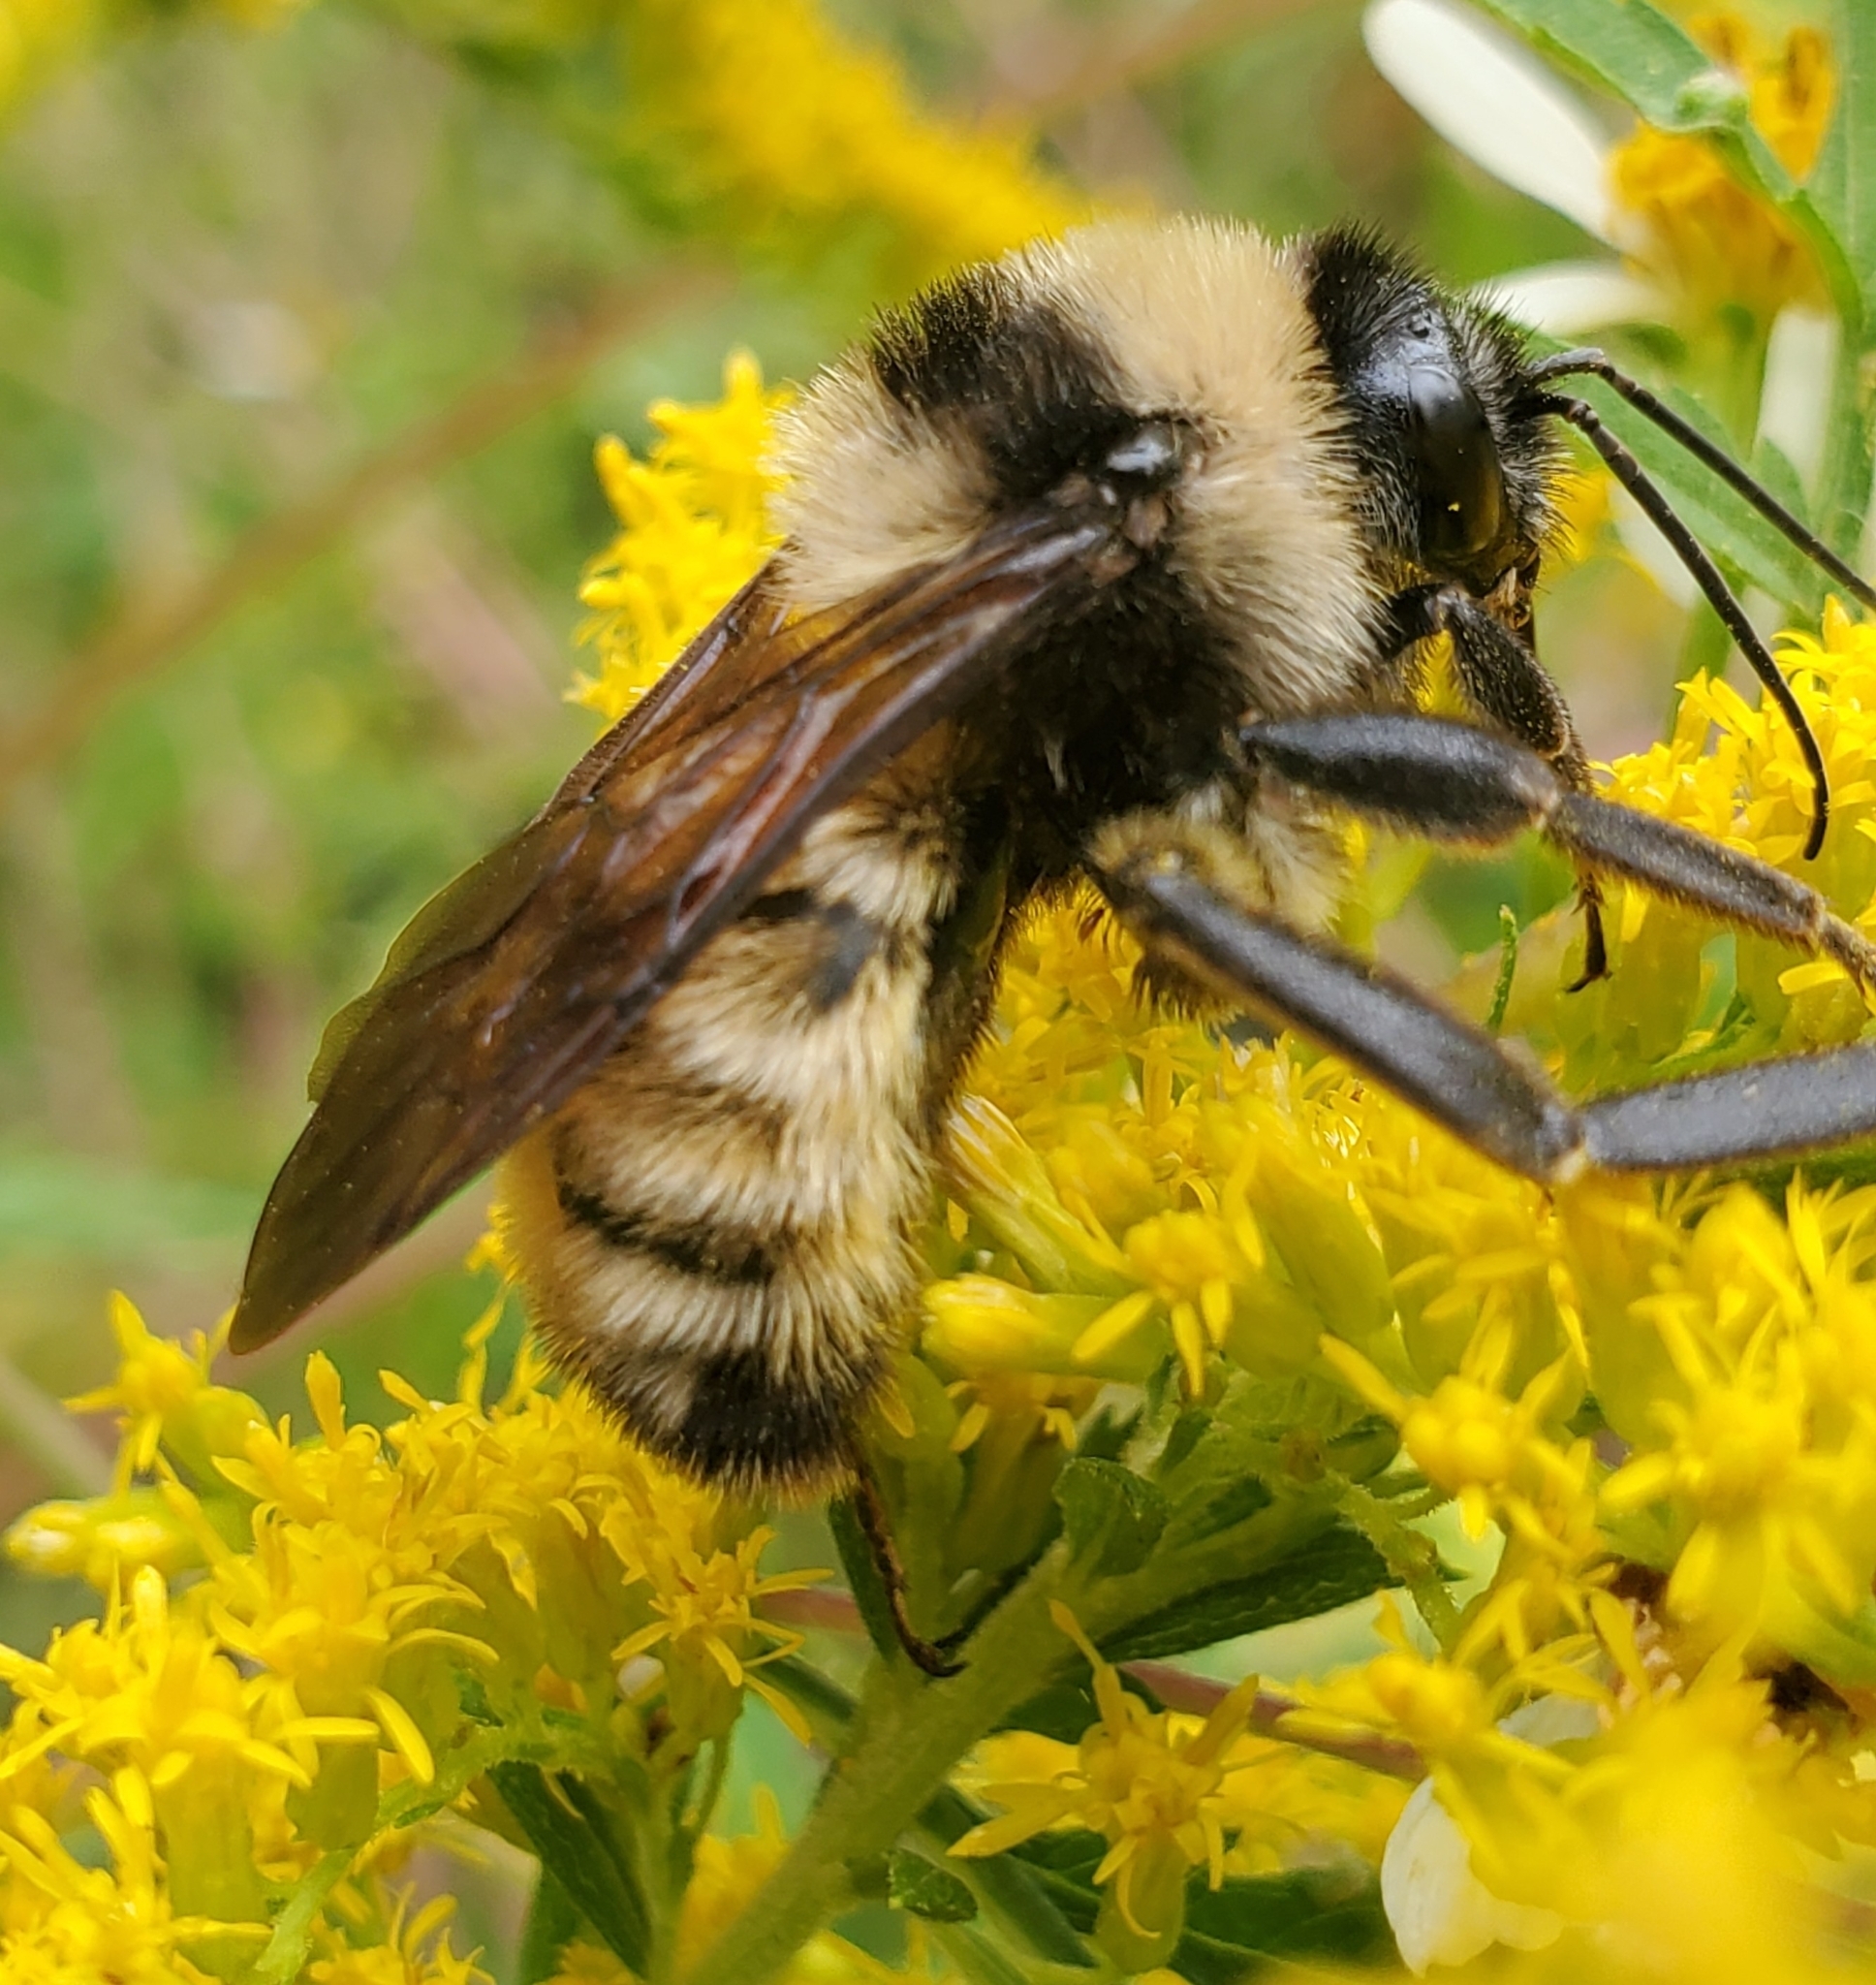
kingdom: Animalia
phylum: Arthropoda
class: Insecta
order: Hymenoptera
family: Apidae
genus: Bombus
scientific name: Bombus pensylvanicus
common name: Bumble bee
